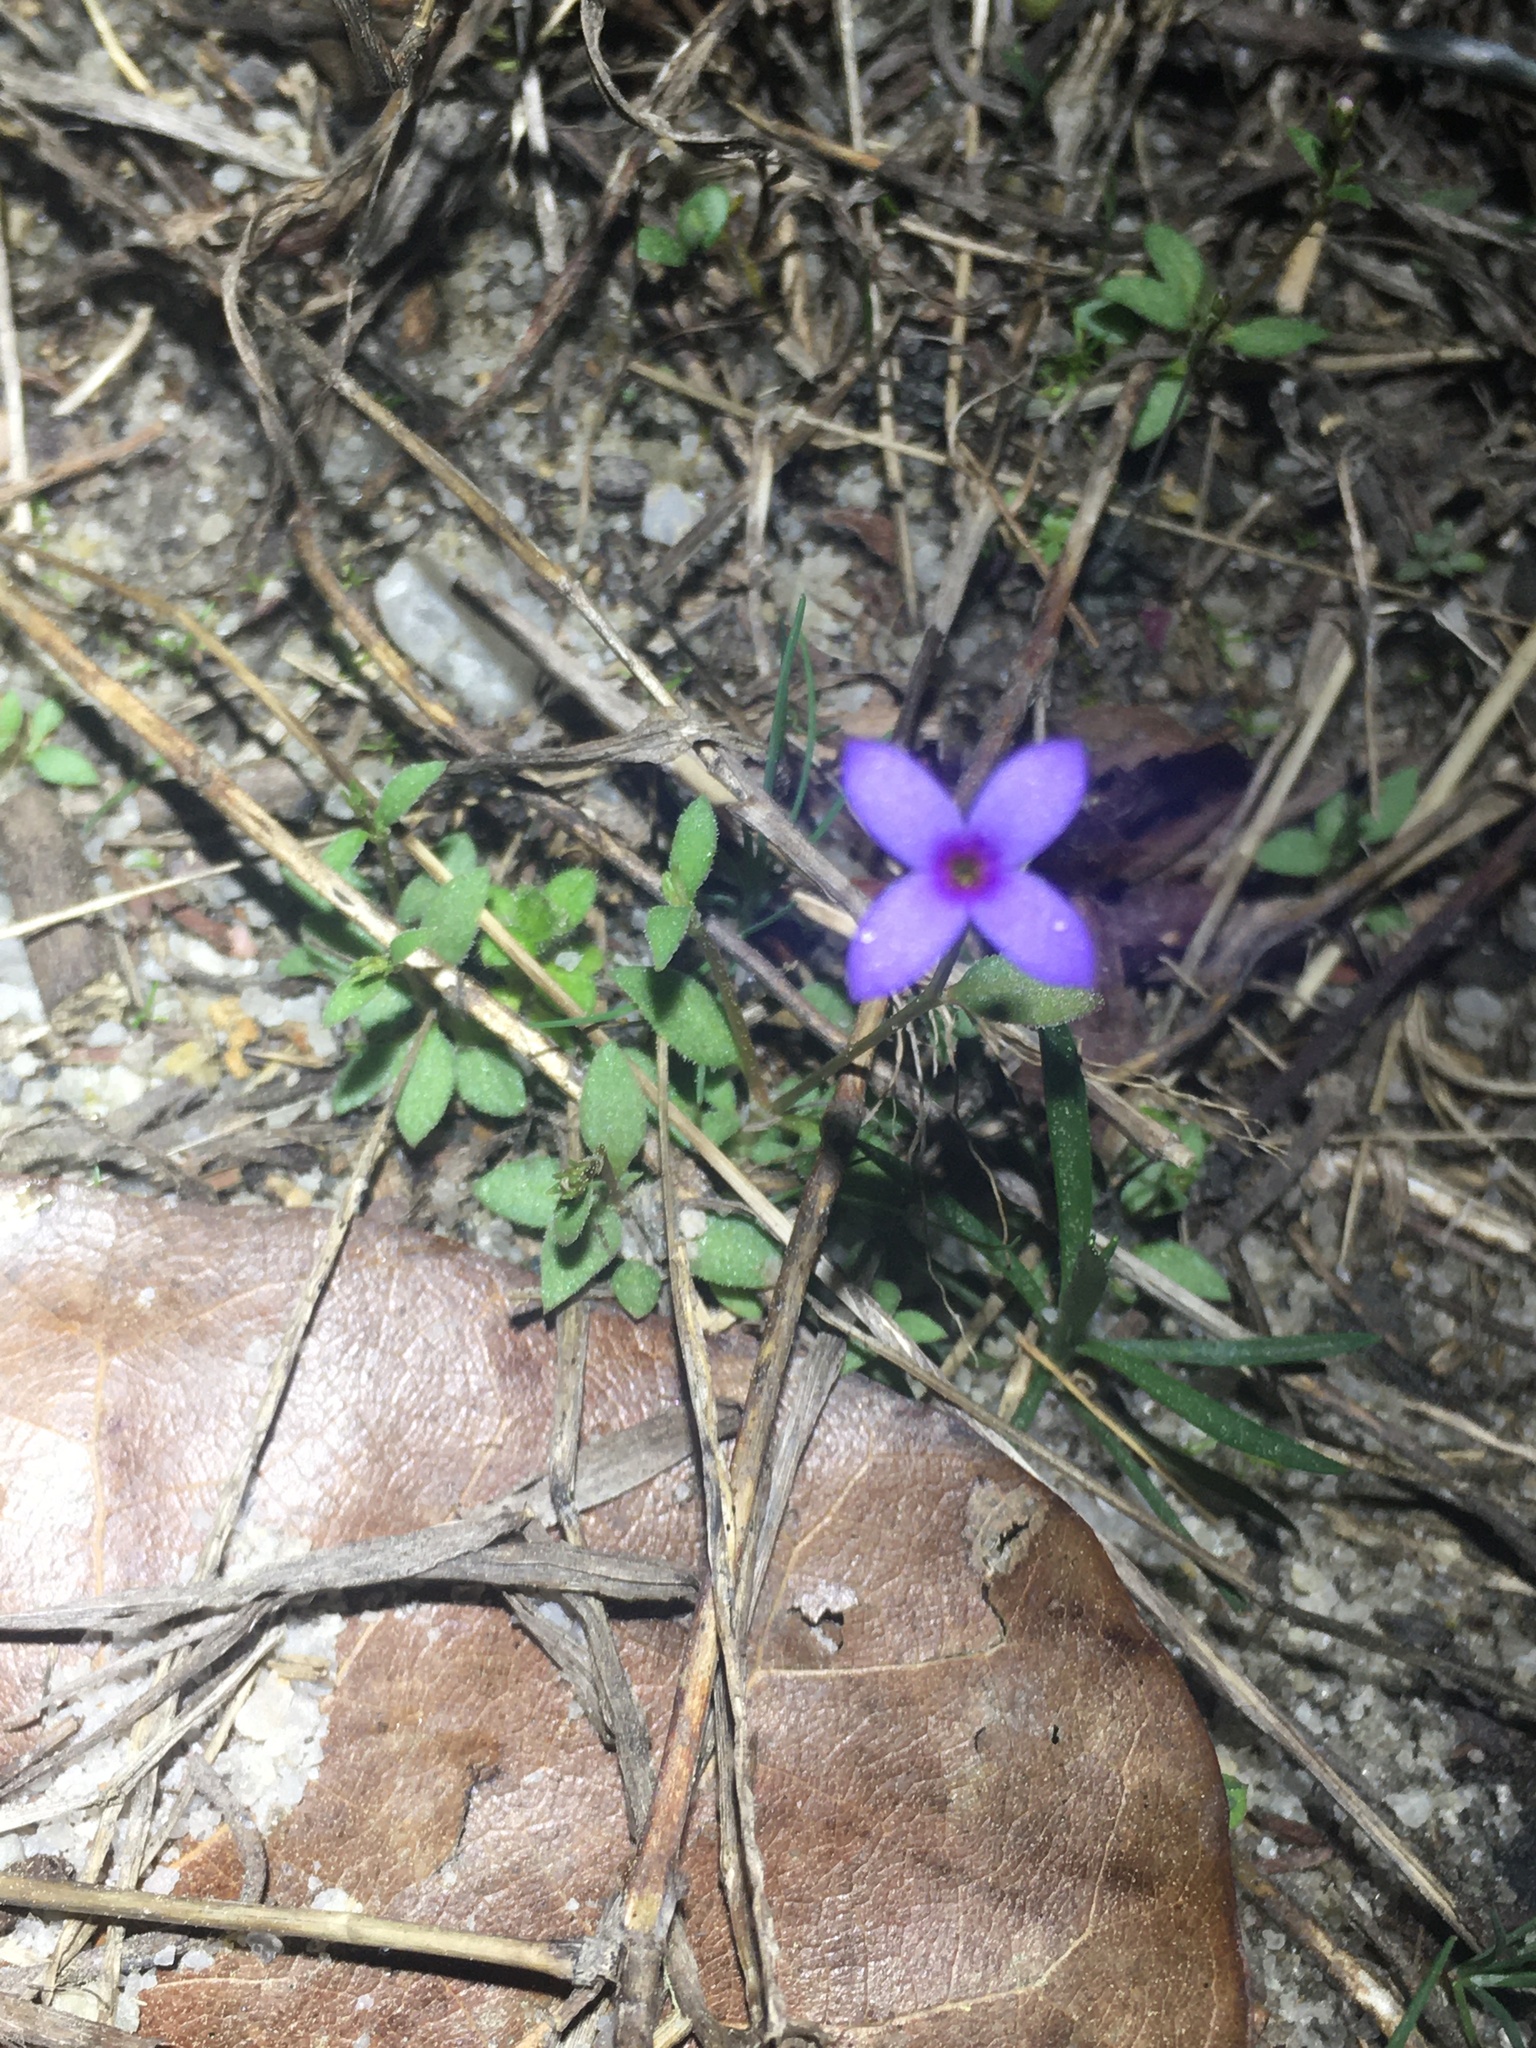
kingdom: Plantae
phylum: Tracheophyta
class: Magnoliopsida
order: Gentianales
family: Rubiaceae
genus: Houstonia
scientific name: Houstonia pusilla
